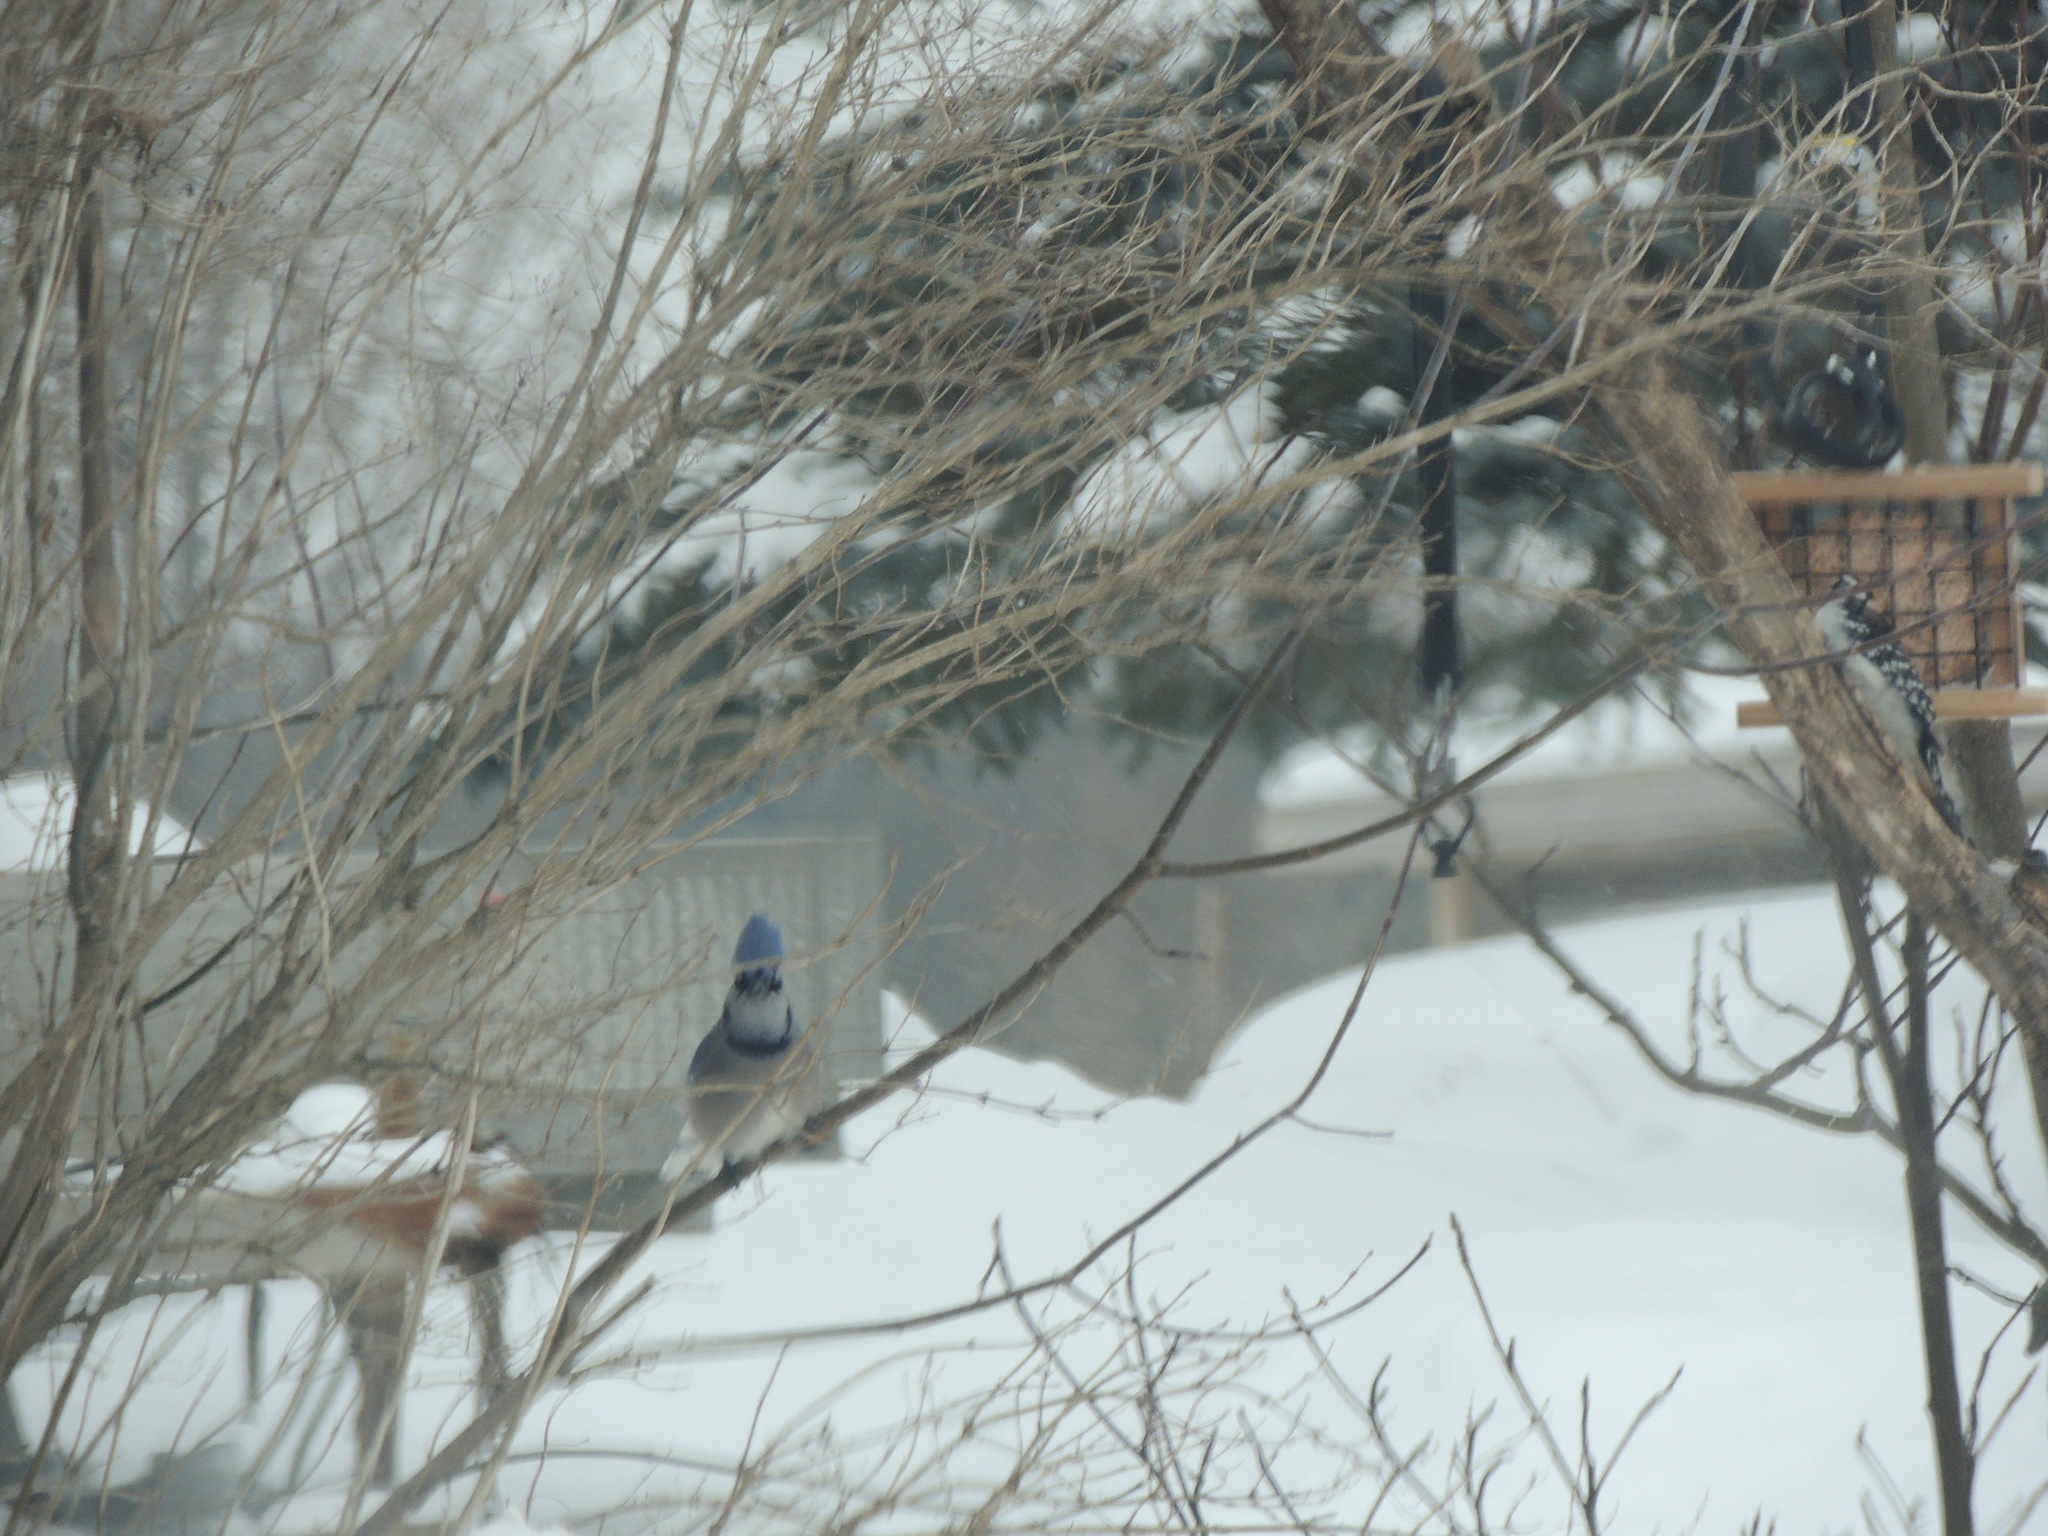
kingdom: Animalia
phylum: Chordata
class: Aves
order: Passeriformes
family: Corvidae
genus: Cyanocitta
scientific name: Cyanocitta cristata
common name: Blue jay
